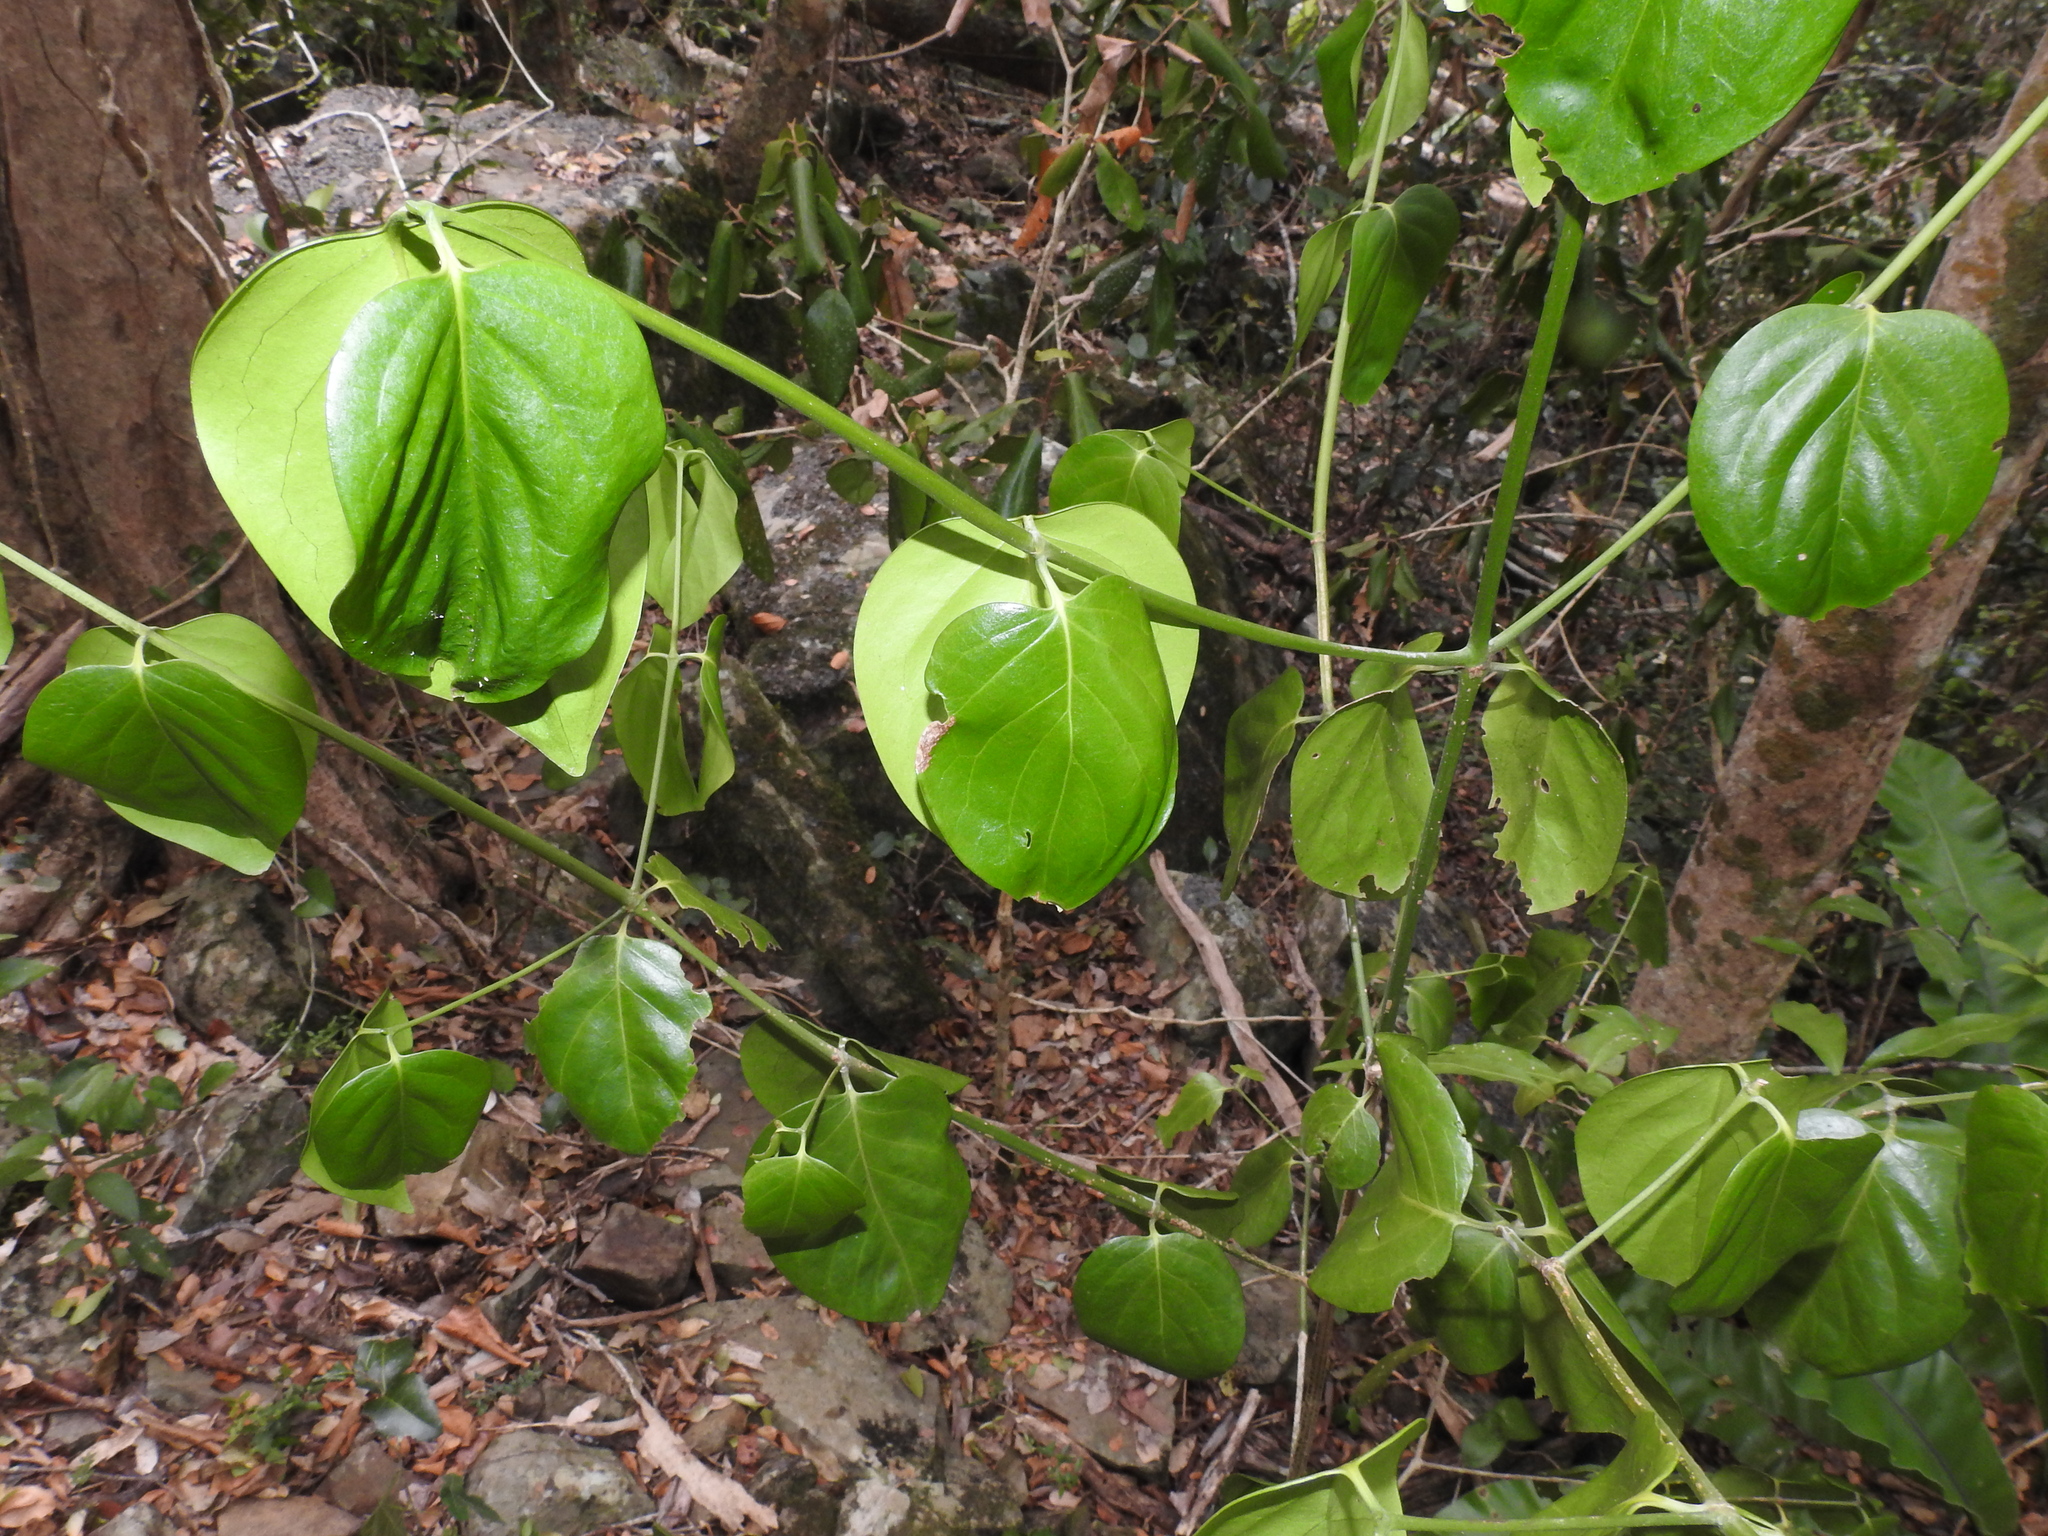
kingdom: Plantae
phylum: Tracheophyta
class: Magnoliopsida
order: Gentianales
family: Rubiaceae
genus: Psydrax
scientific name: Psydrax lamprophyllus
